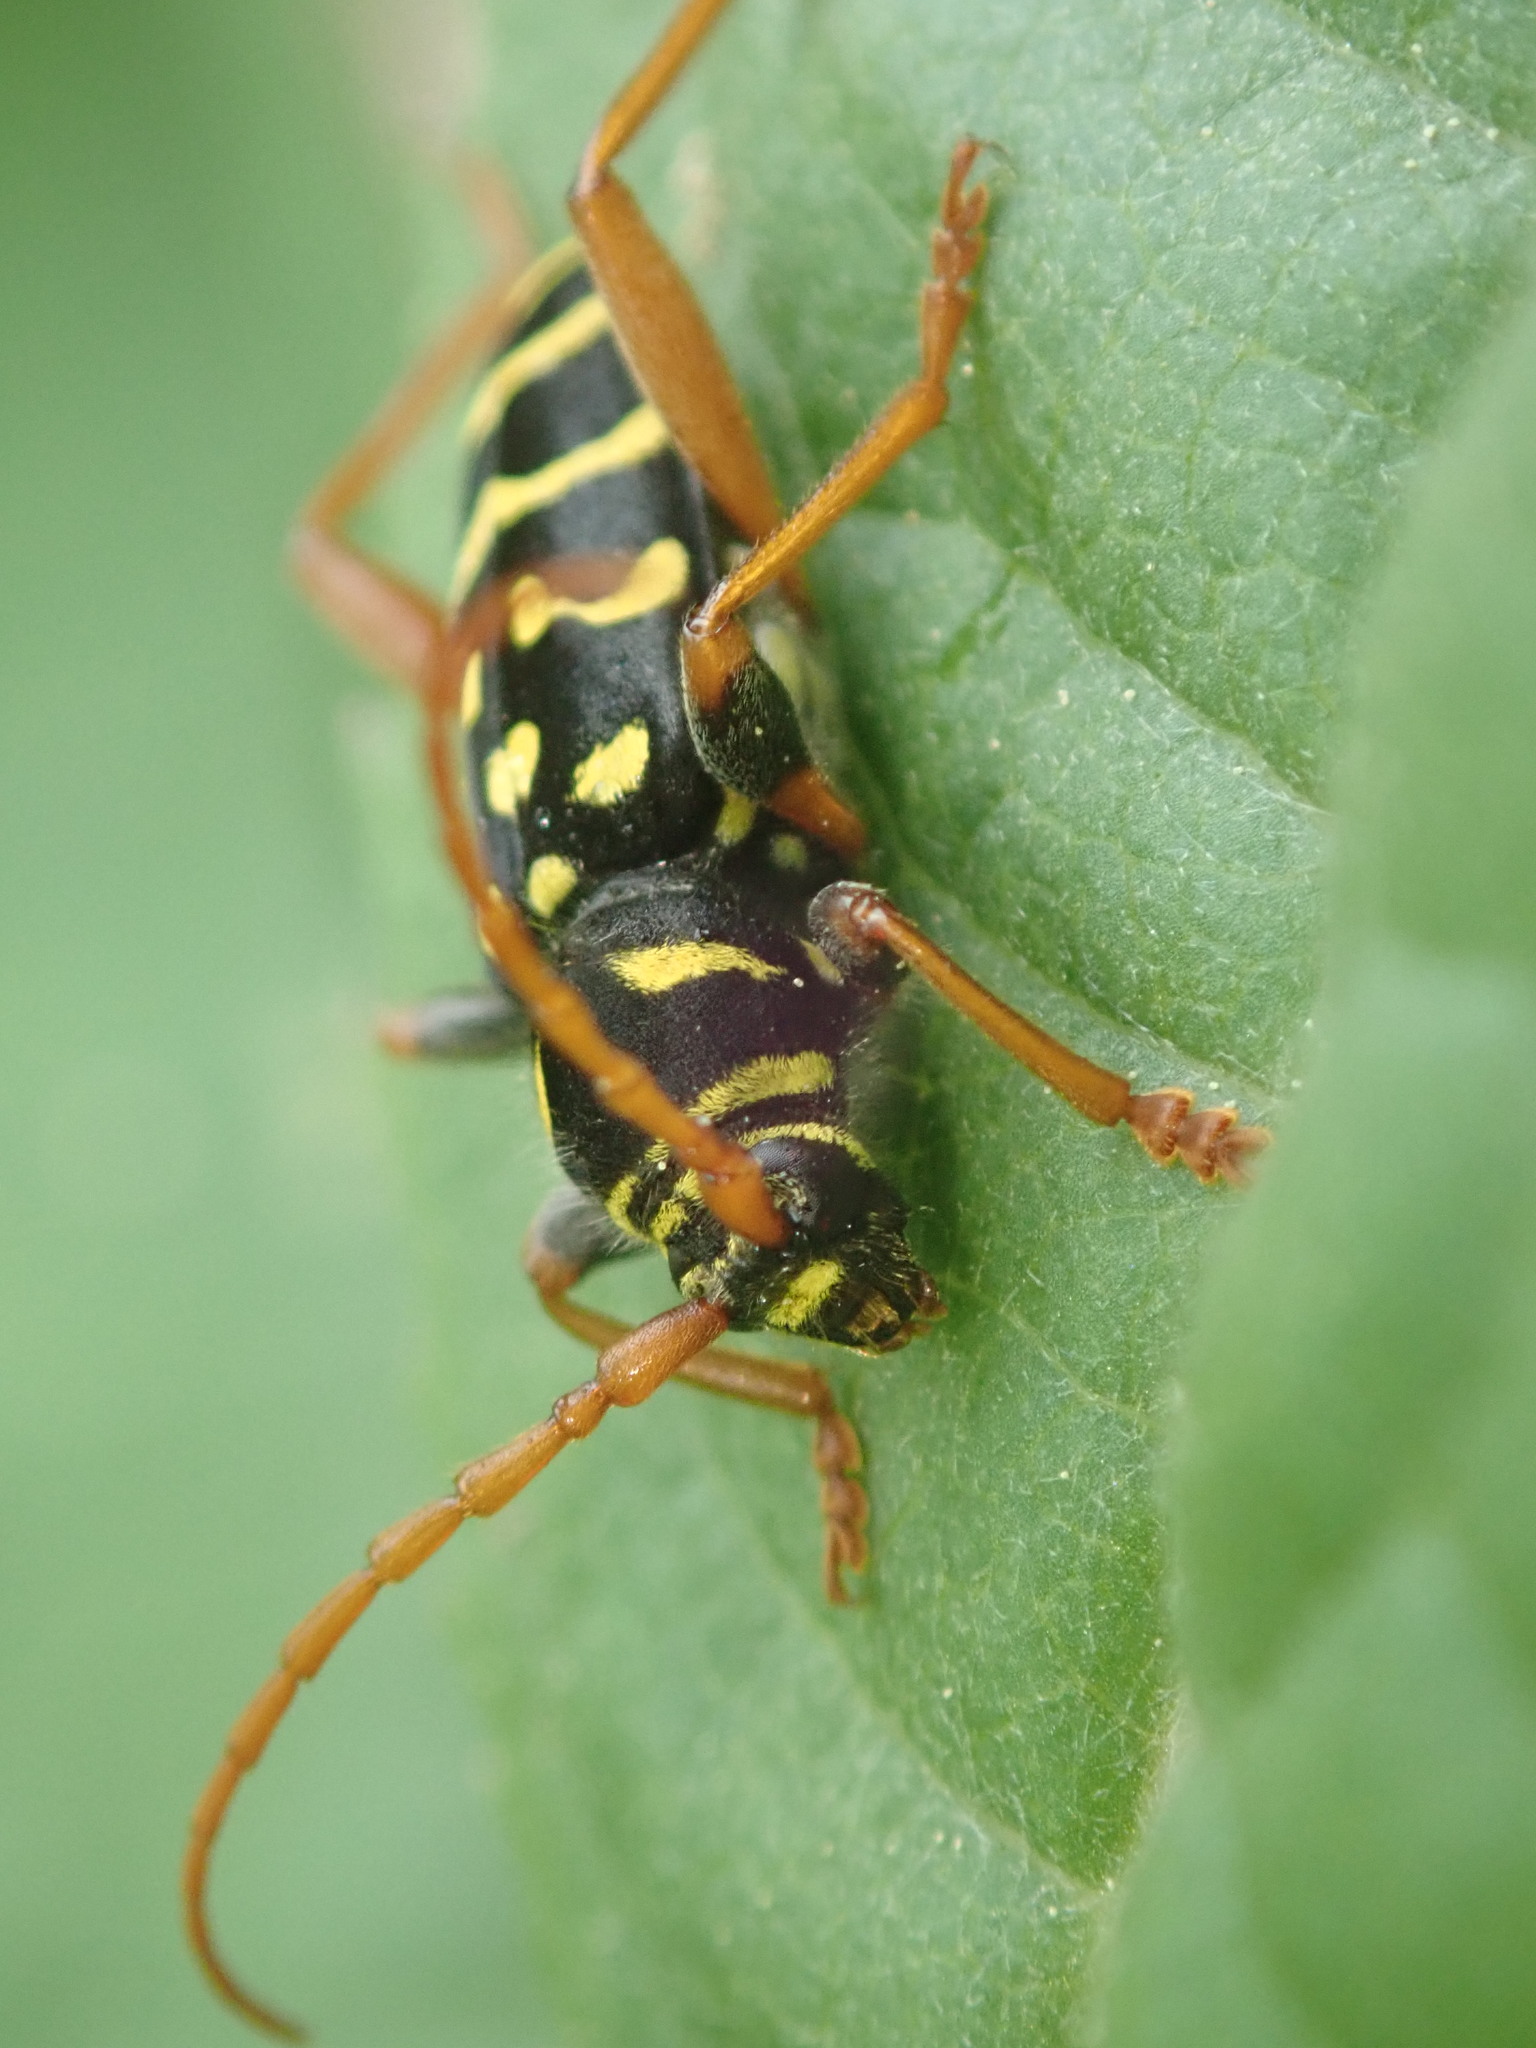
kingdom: Animalia
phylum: Arthropoda
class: Insecta
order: Coleoptera
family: Cerambycidae
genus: Plagionotus
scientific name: Plagionotus arcuatus
